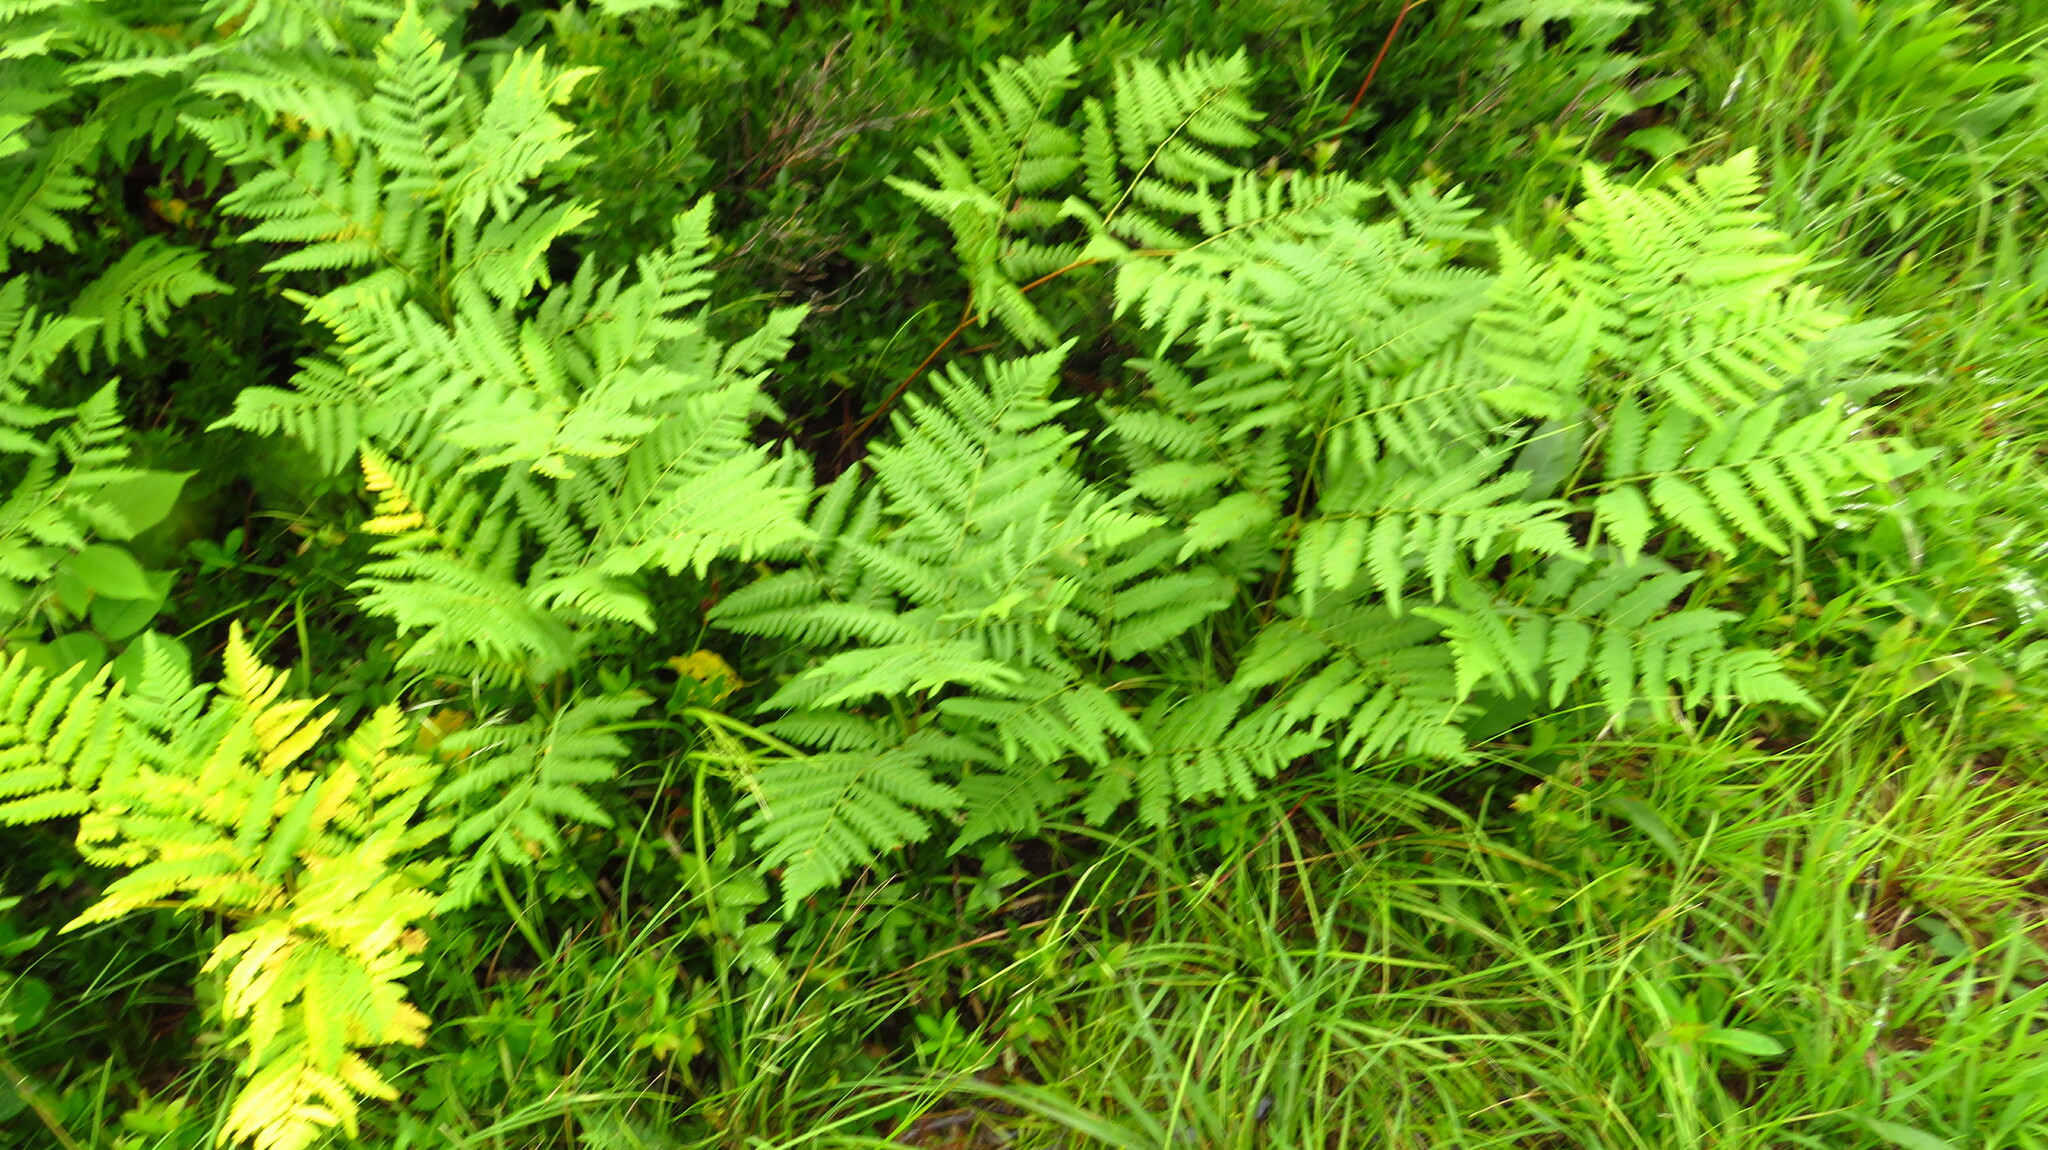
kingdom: Plantae
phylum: Tracheophyta
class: Polypodiopsida
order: Polypodiales
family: Dennstaedtiaceae
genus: Pteridium
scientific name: Pteridium aquilinum
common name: Bracken
